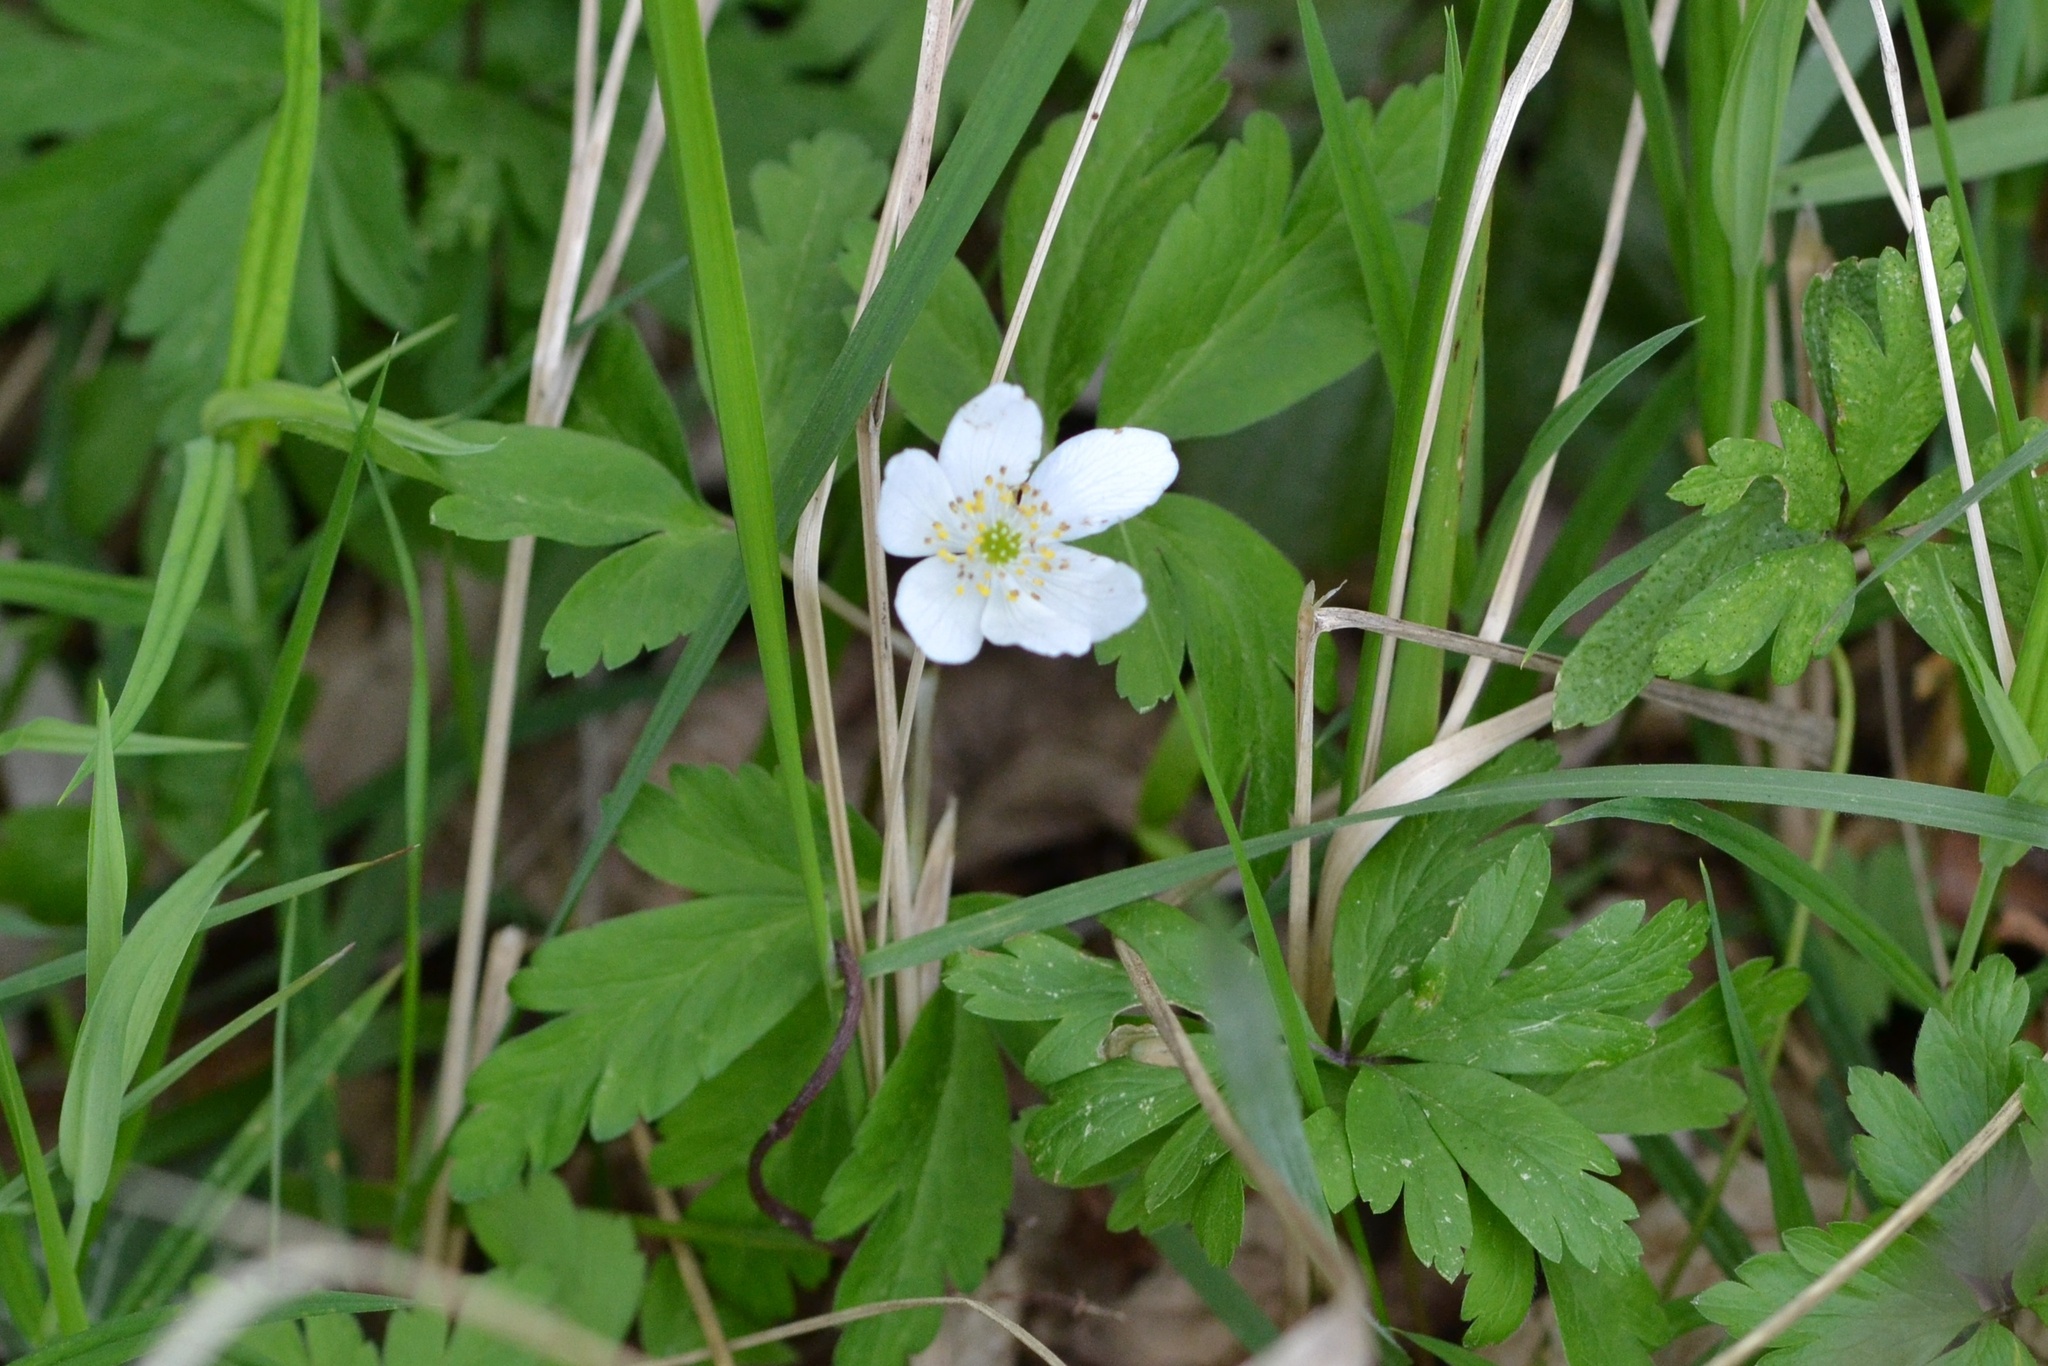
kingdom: Plantae
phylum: Tracheophyta
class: Magnoliopsida
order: Ranunculales
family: Ranunculaceae
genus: Anemone
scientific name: Anemone nemorosa
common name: Wood anemone
